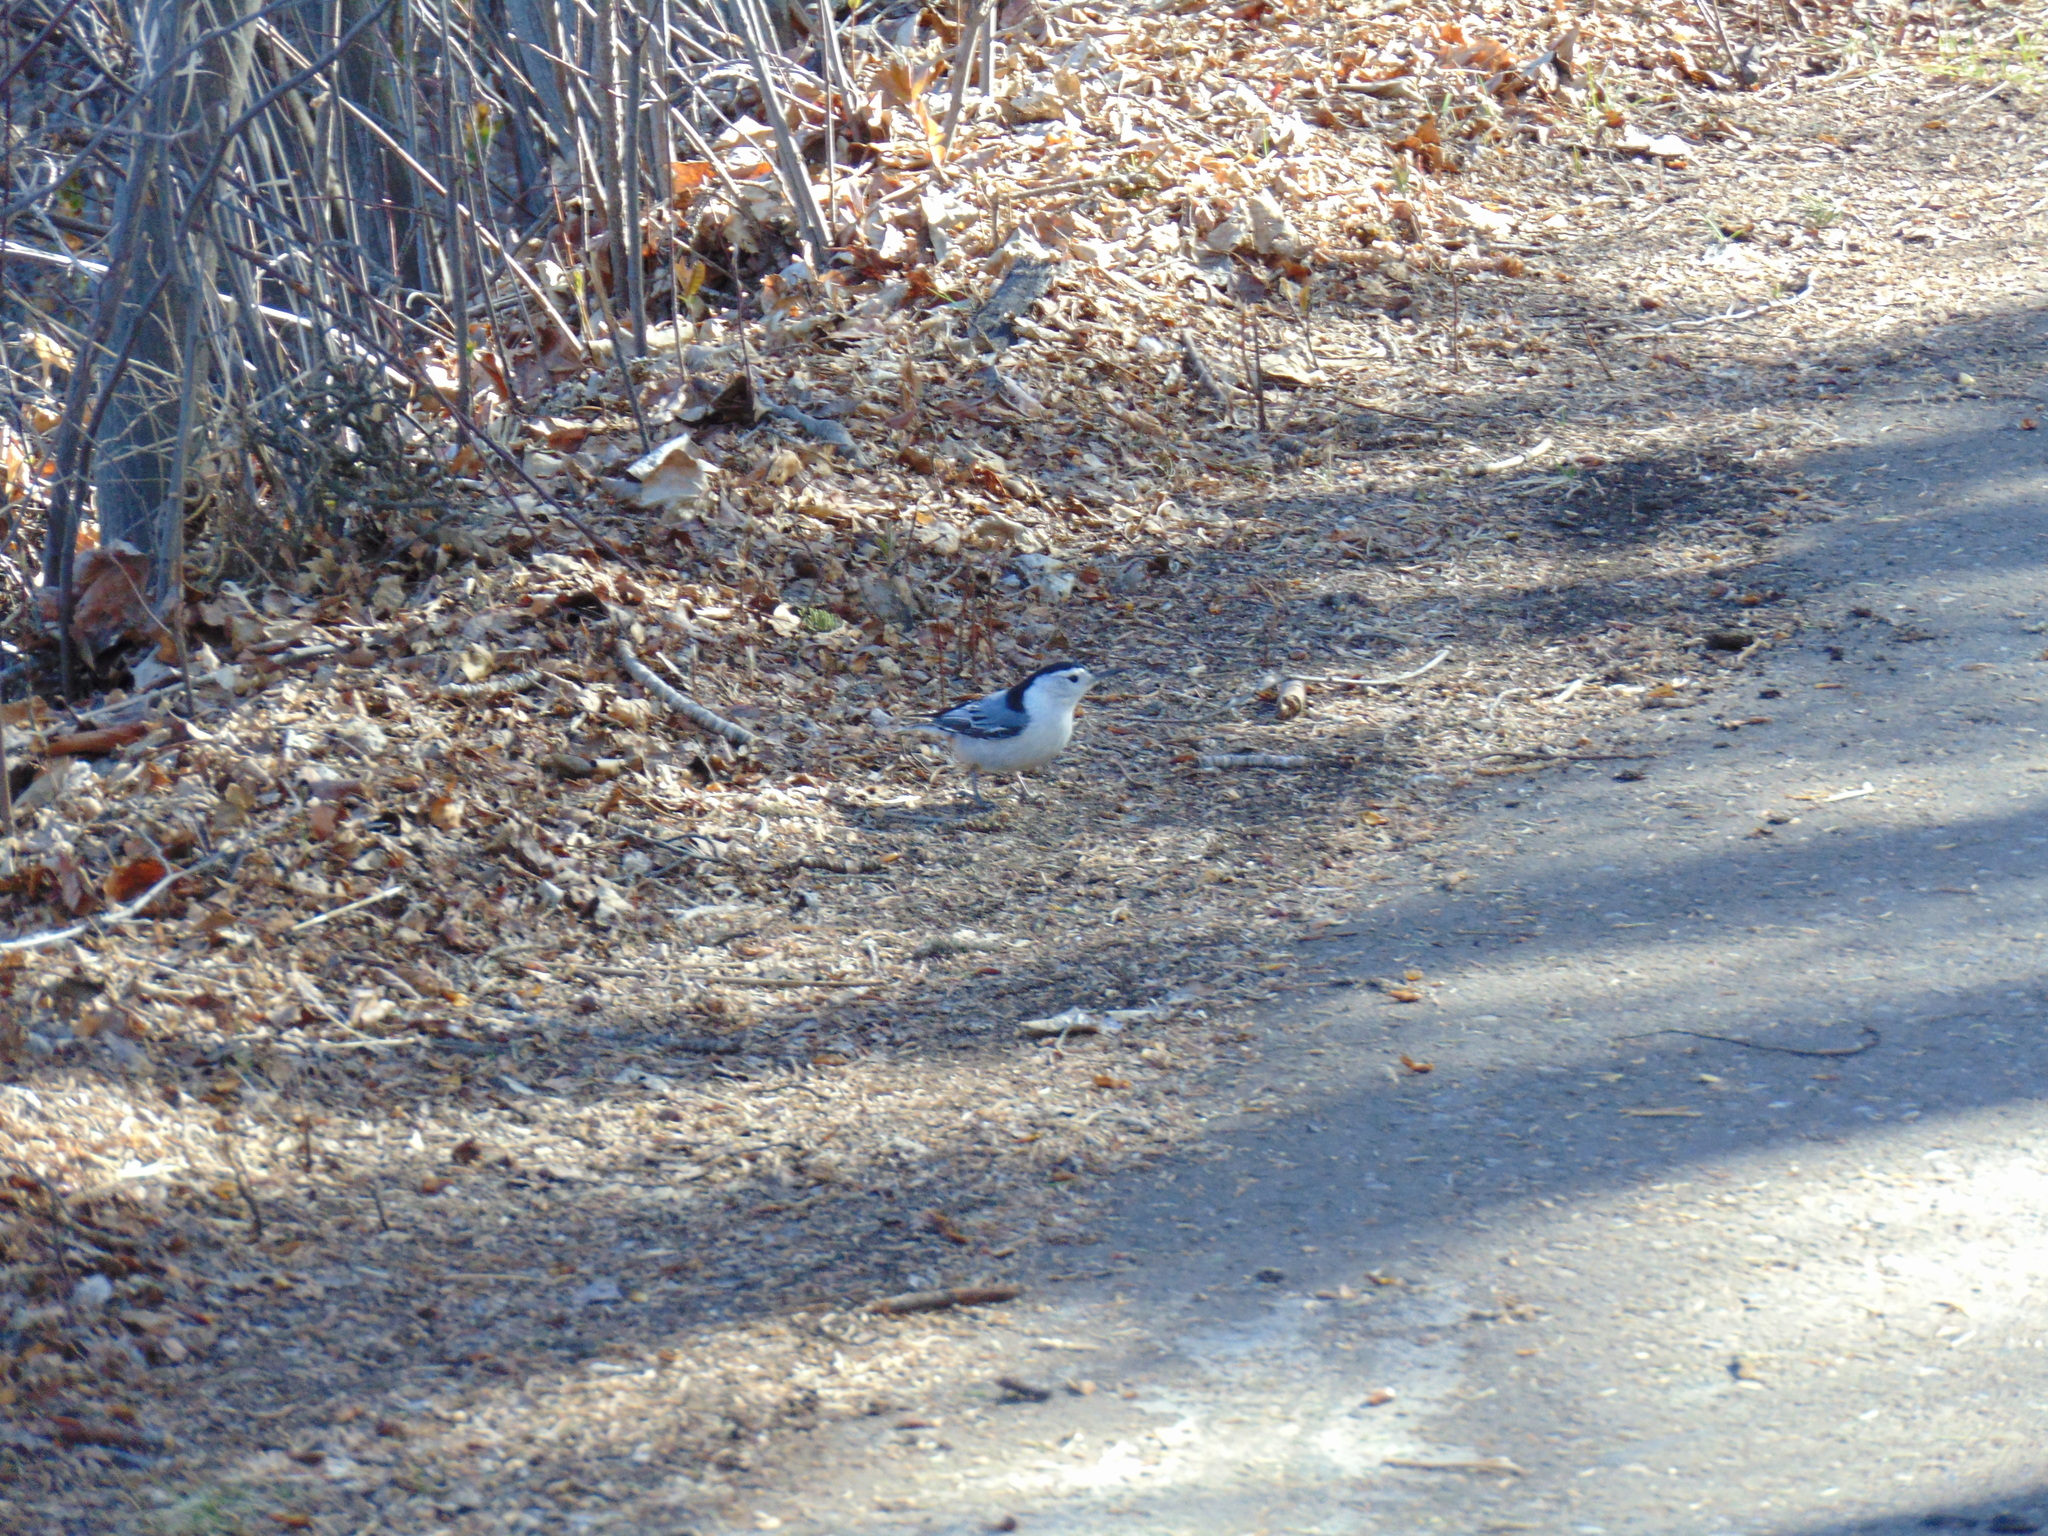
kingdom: Animalia
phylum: Chordata
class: Aves
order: Passeriformes
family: Sittidae
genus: Sitta
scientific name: Sitta carolinensis
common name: White-breasted nuthatch
